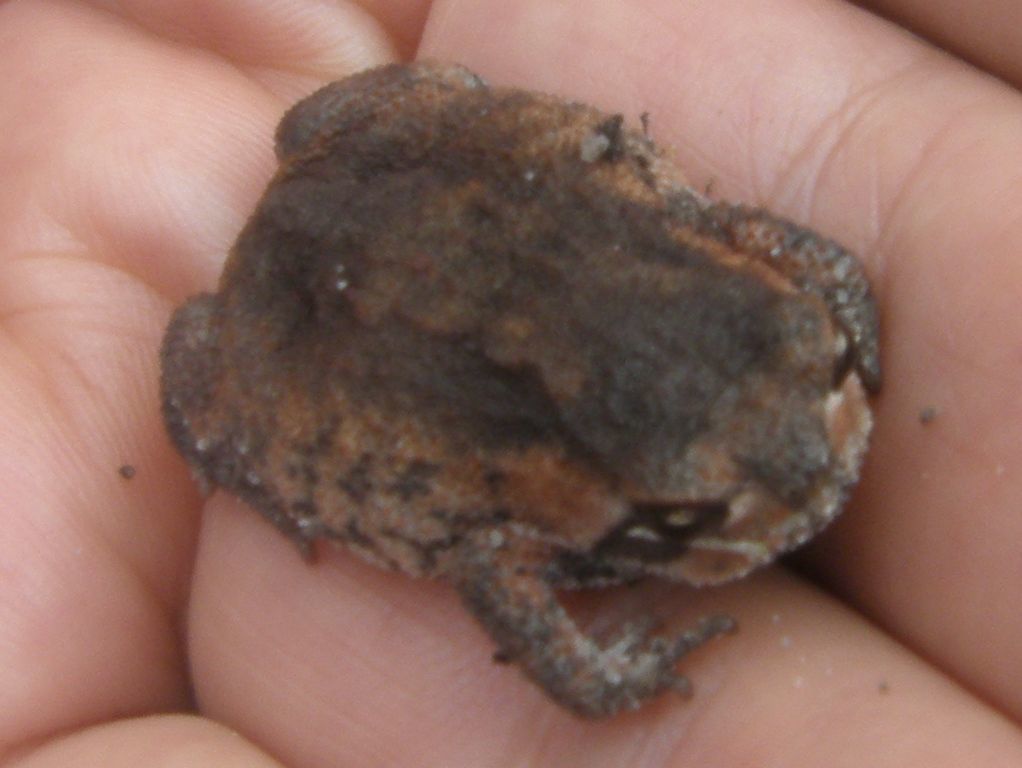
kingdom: Animalia
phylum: Chordata
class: Amphibia
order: Anura
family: Brevicipitidae
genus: Breviceps
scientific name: Breviceps montanus
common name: Mountain rain frog
